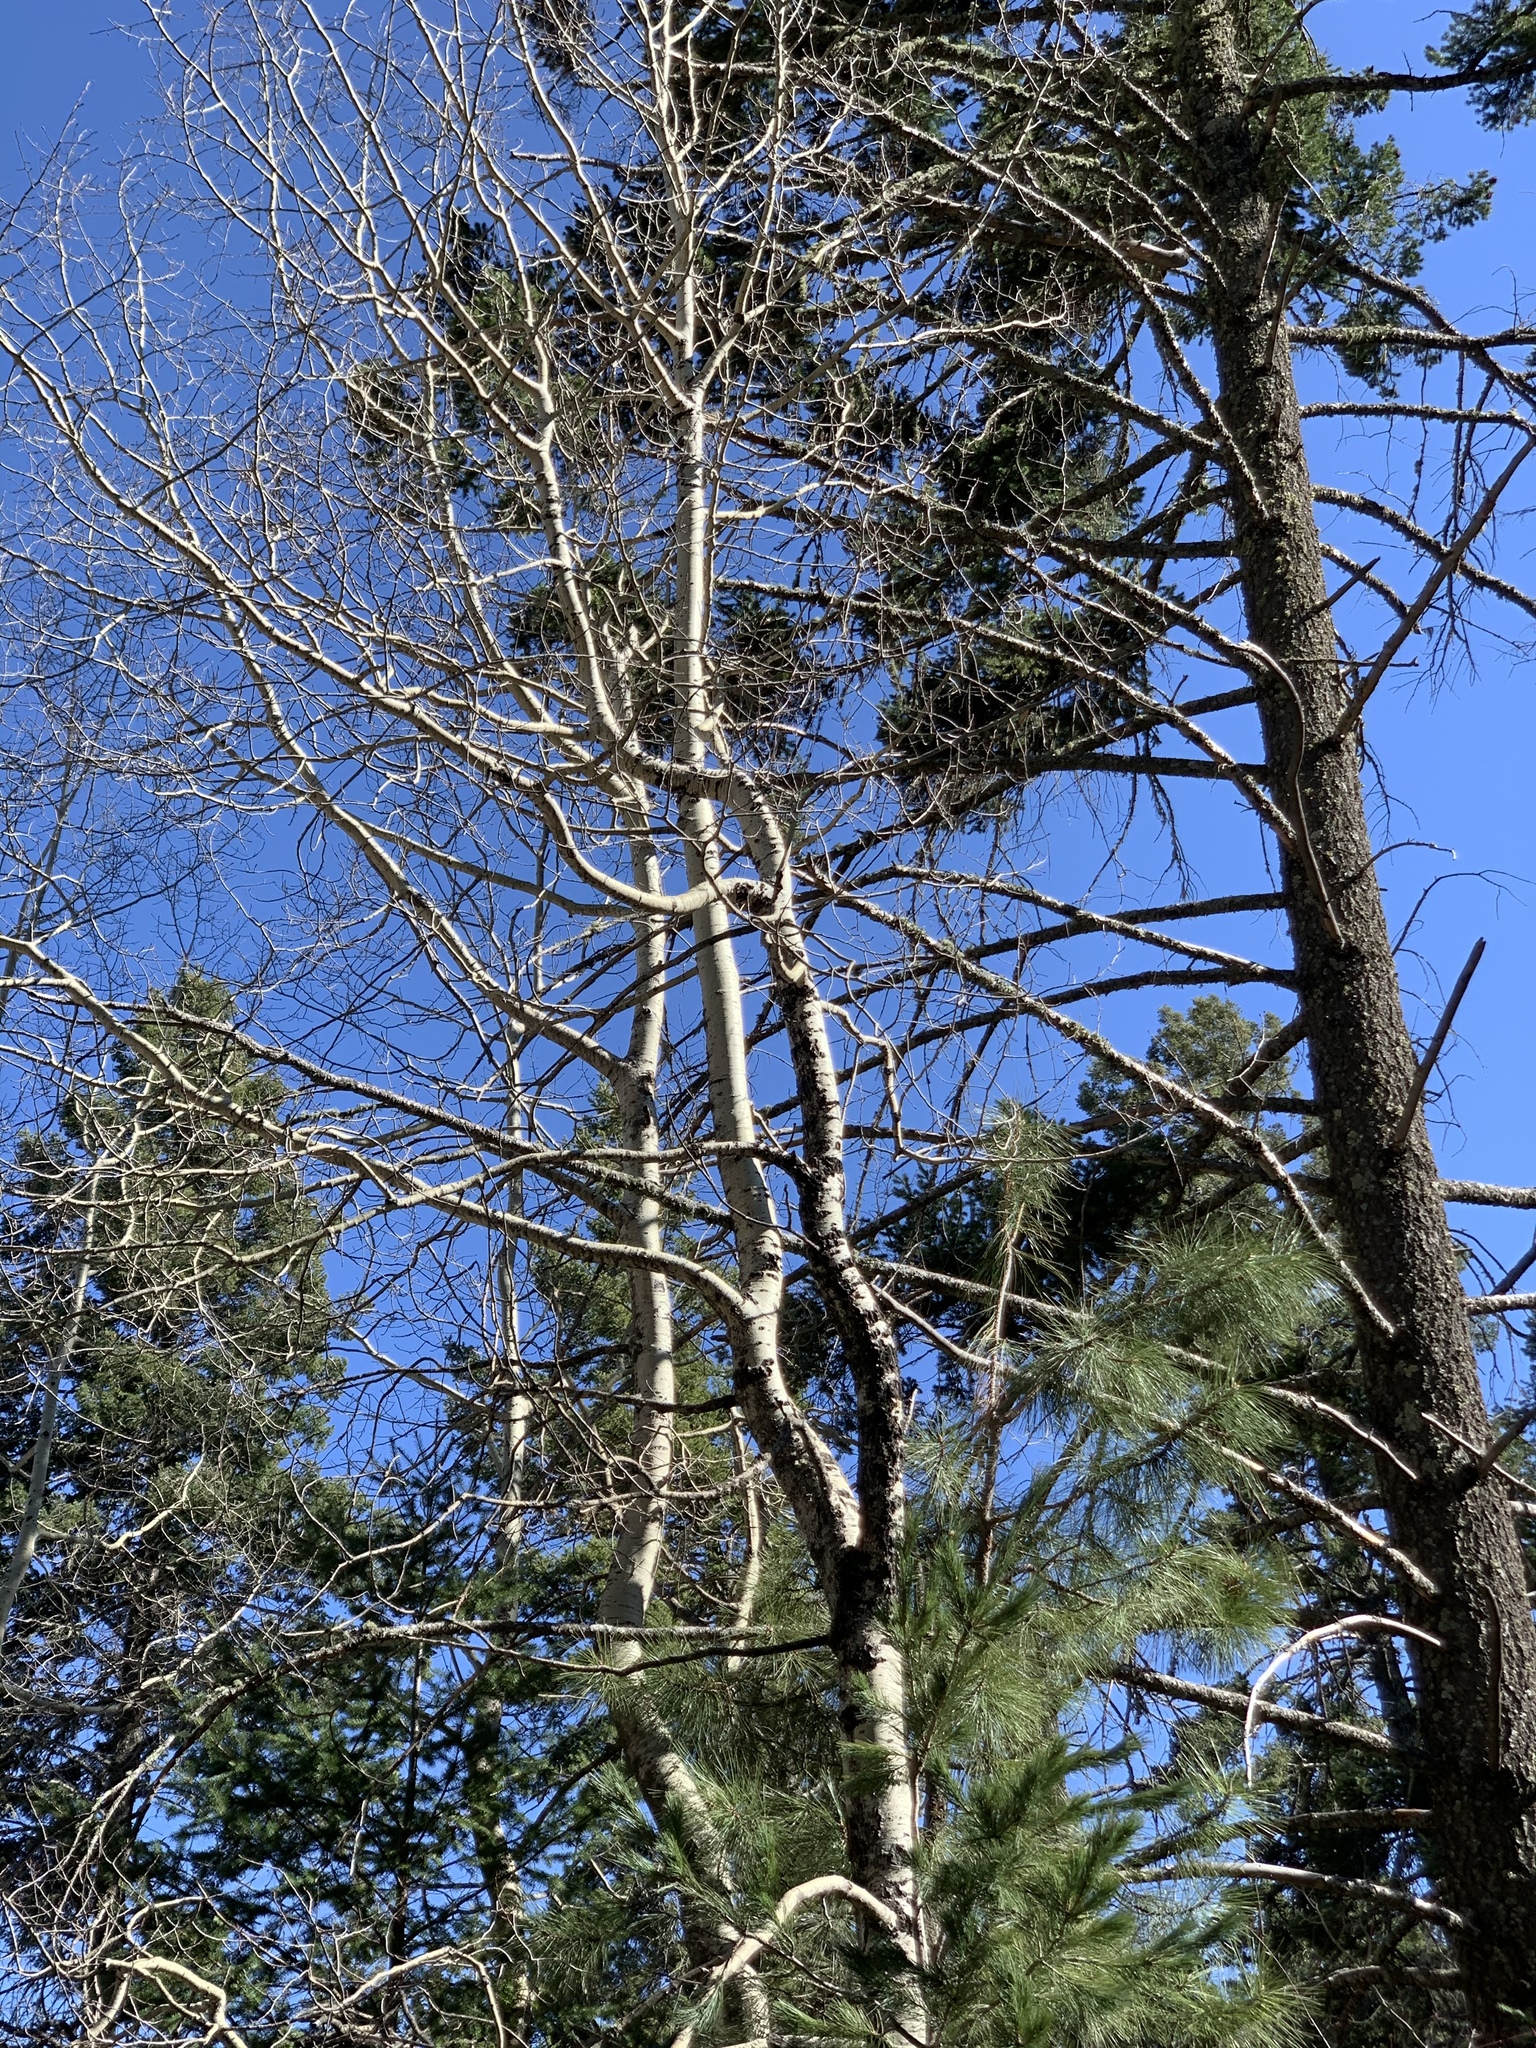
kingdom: Plantae
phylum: Tracheophyta
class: Magnoliopsida
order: Malpighiales
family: Salicaceae
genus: Populus
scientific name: Populus tremuloides
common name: Quaking aspen
